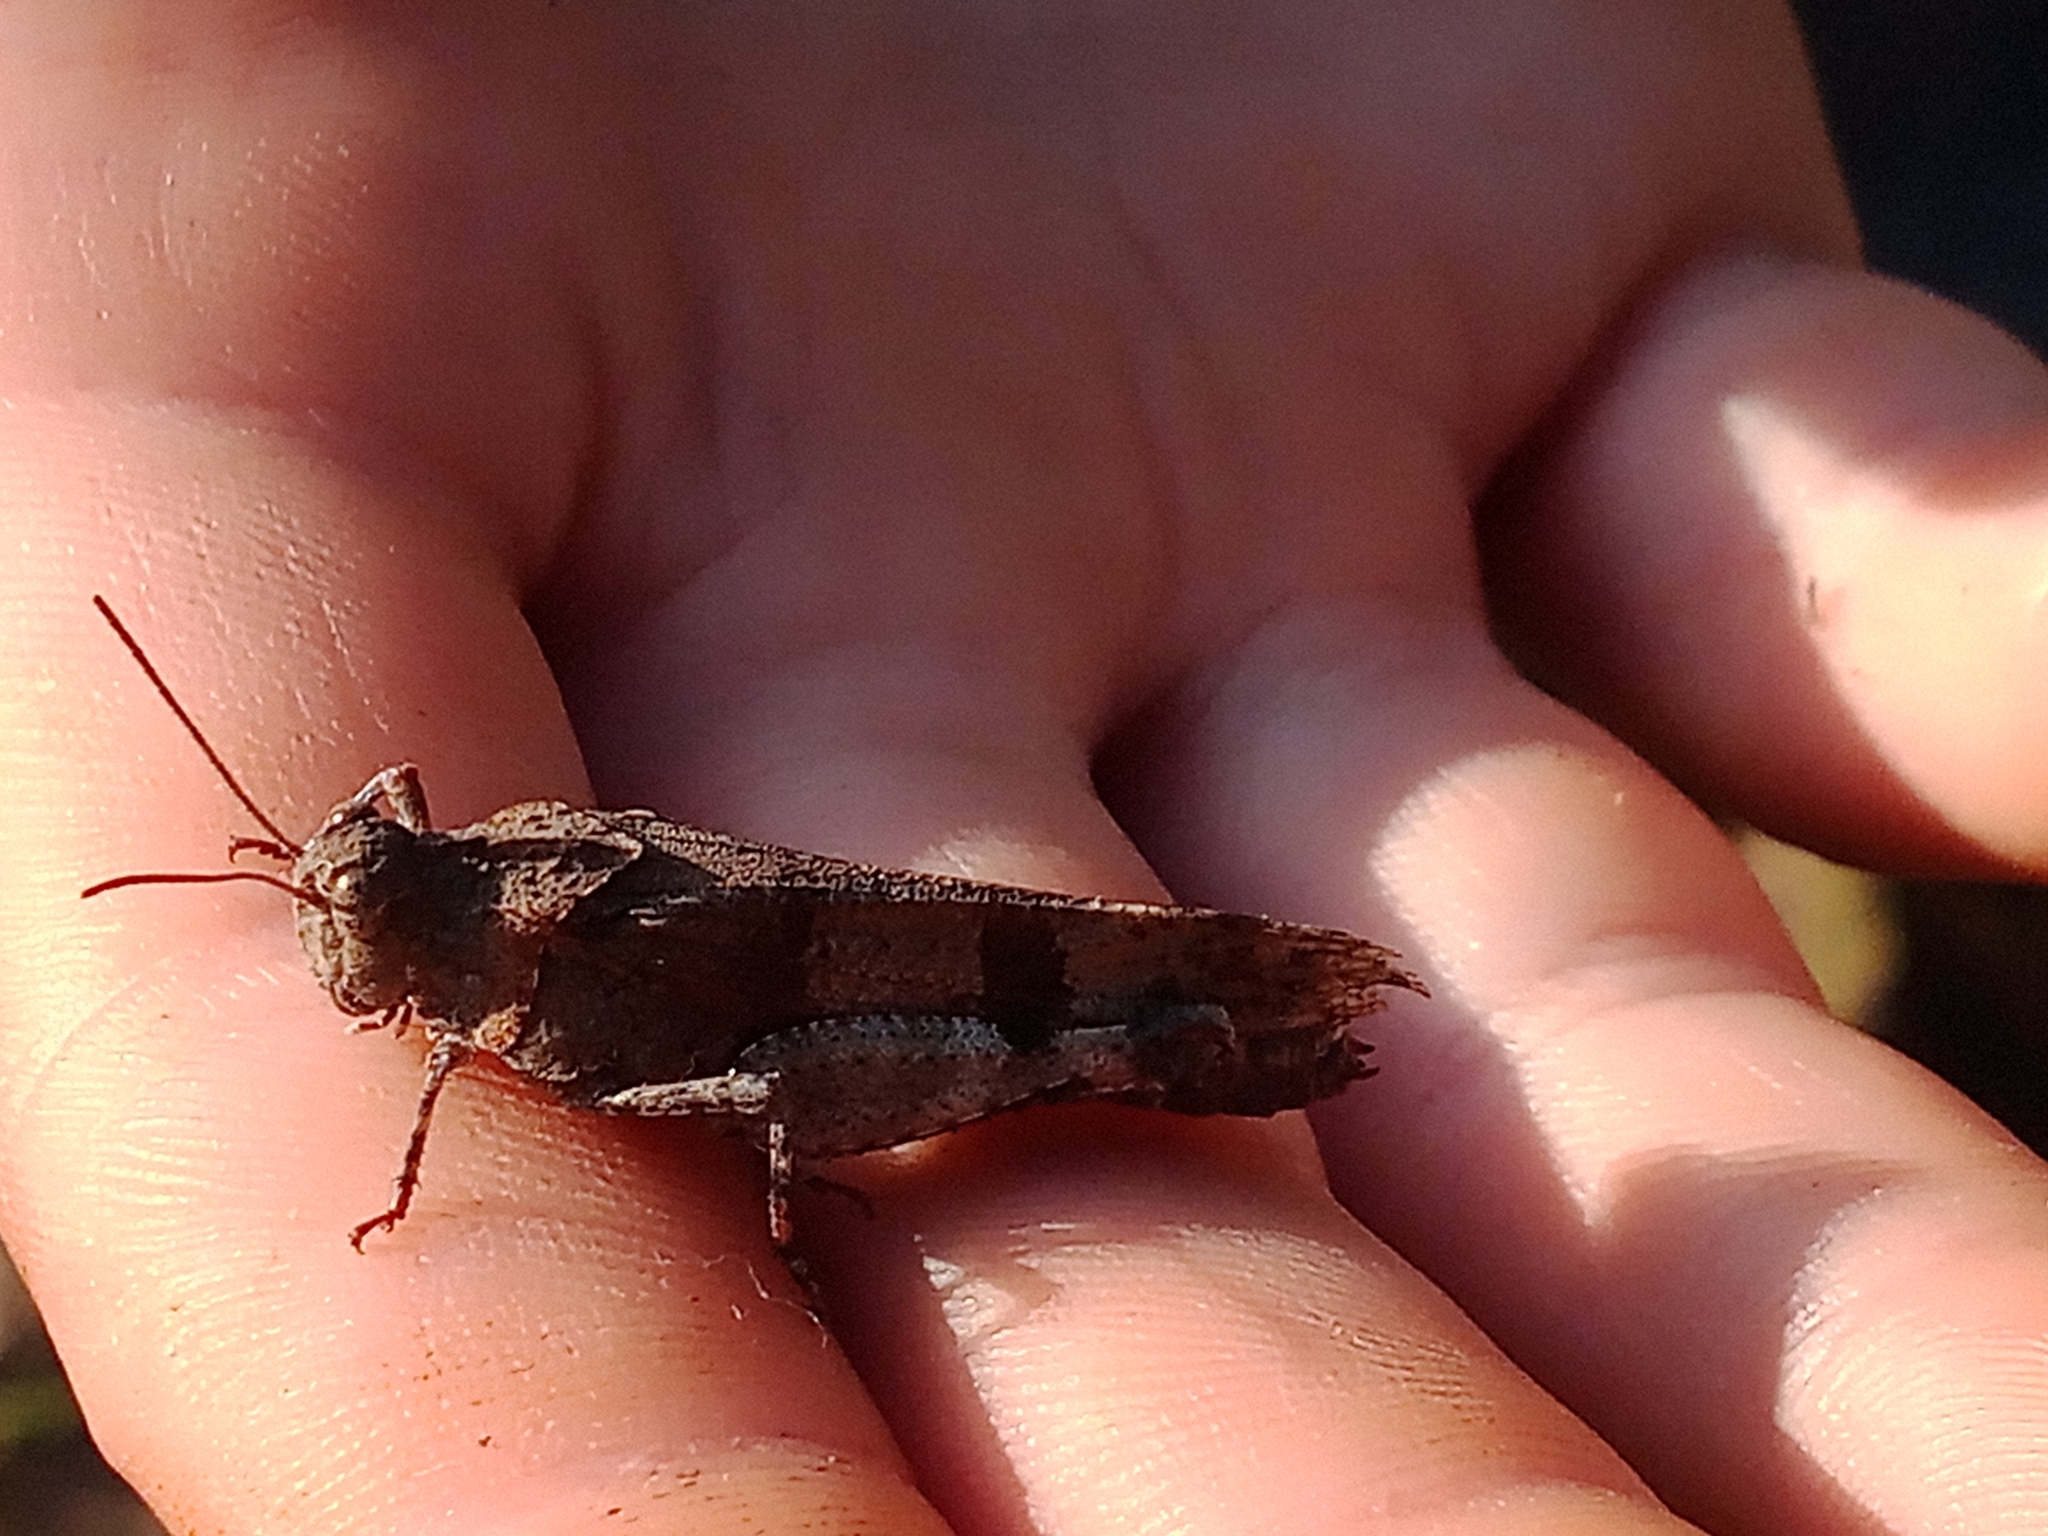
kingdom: Animalia
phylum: Arthropoda
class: Insecta
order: Orthoptera
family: Acrididae
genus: Oedipoda
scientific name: Oedipoda caerulescens
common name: Blue-winged grasshopper
